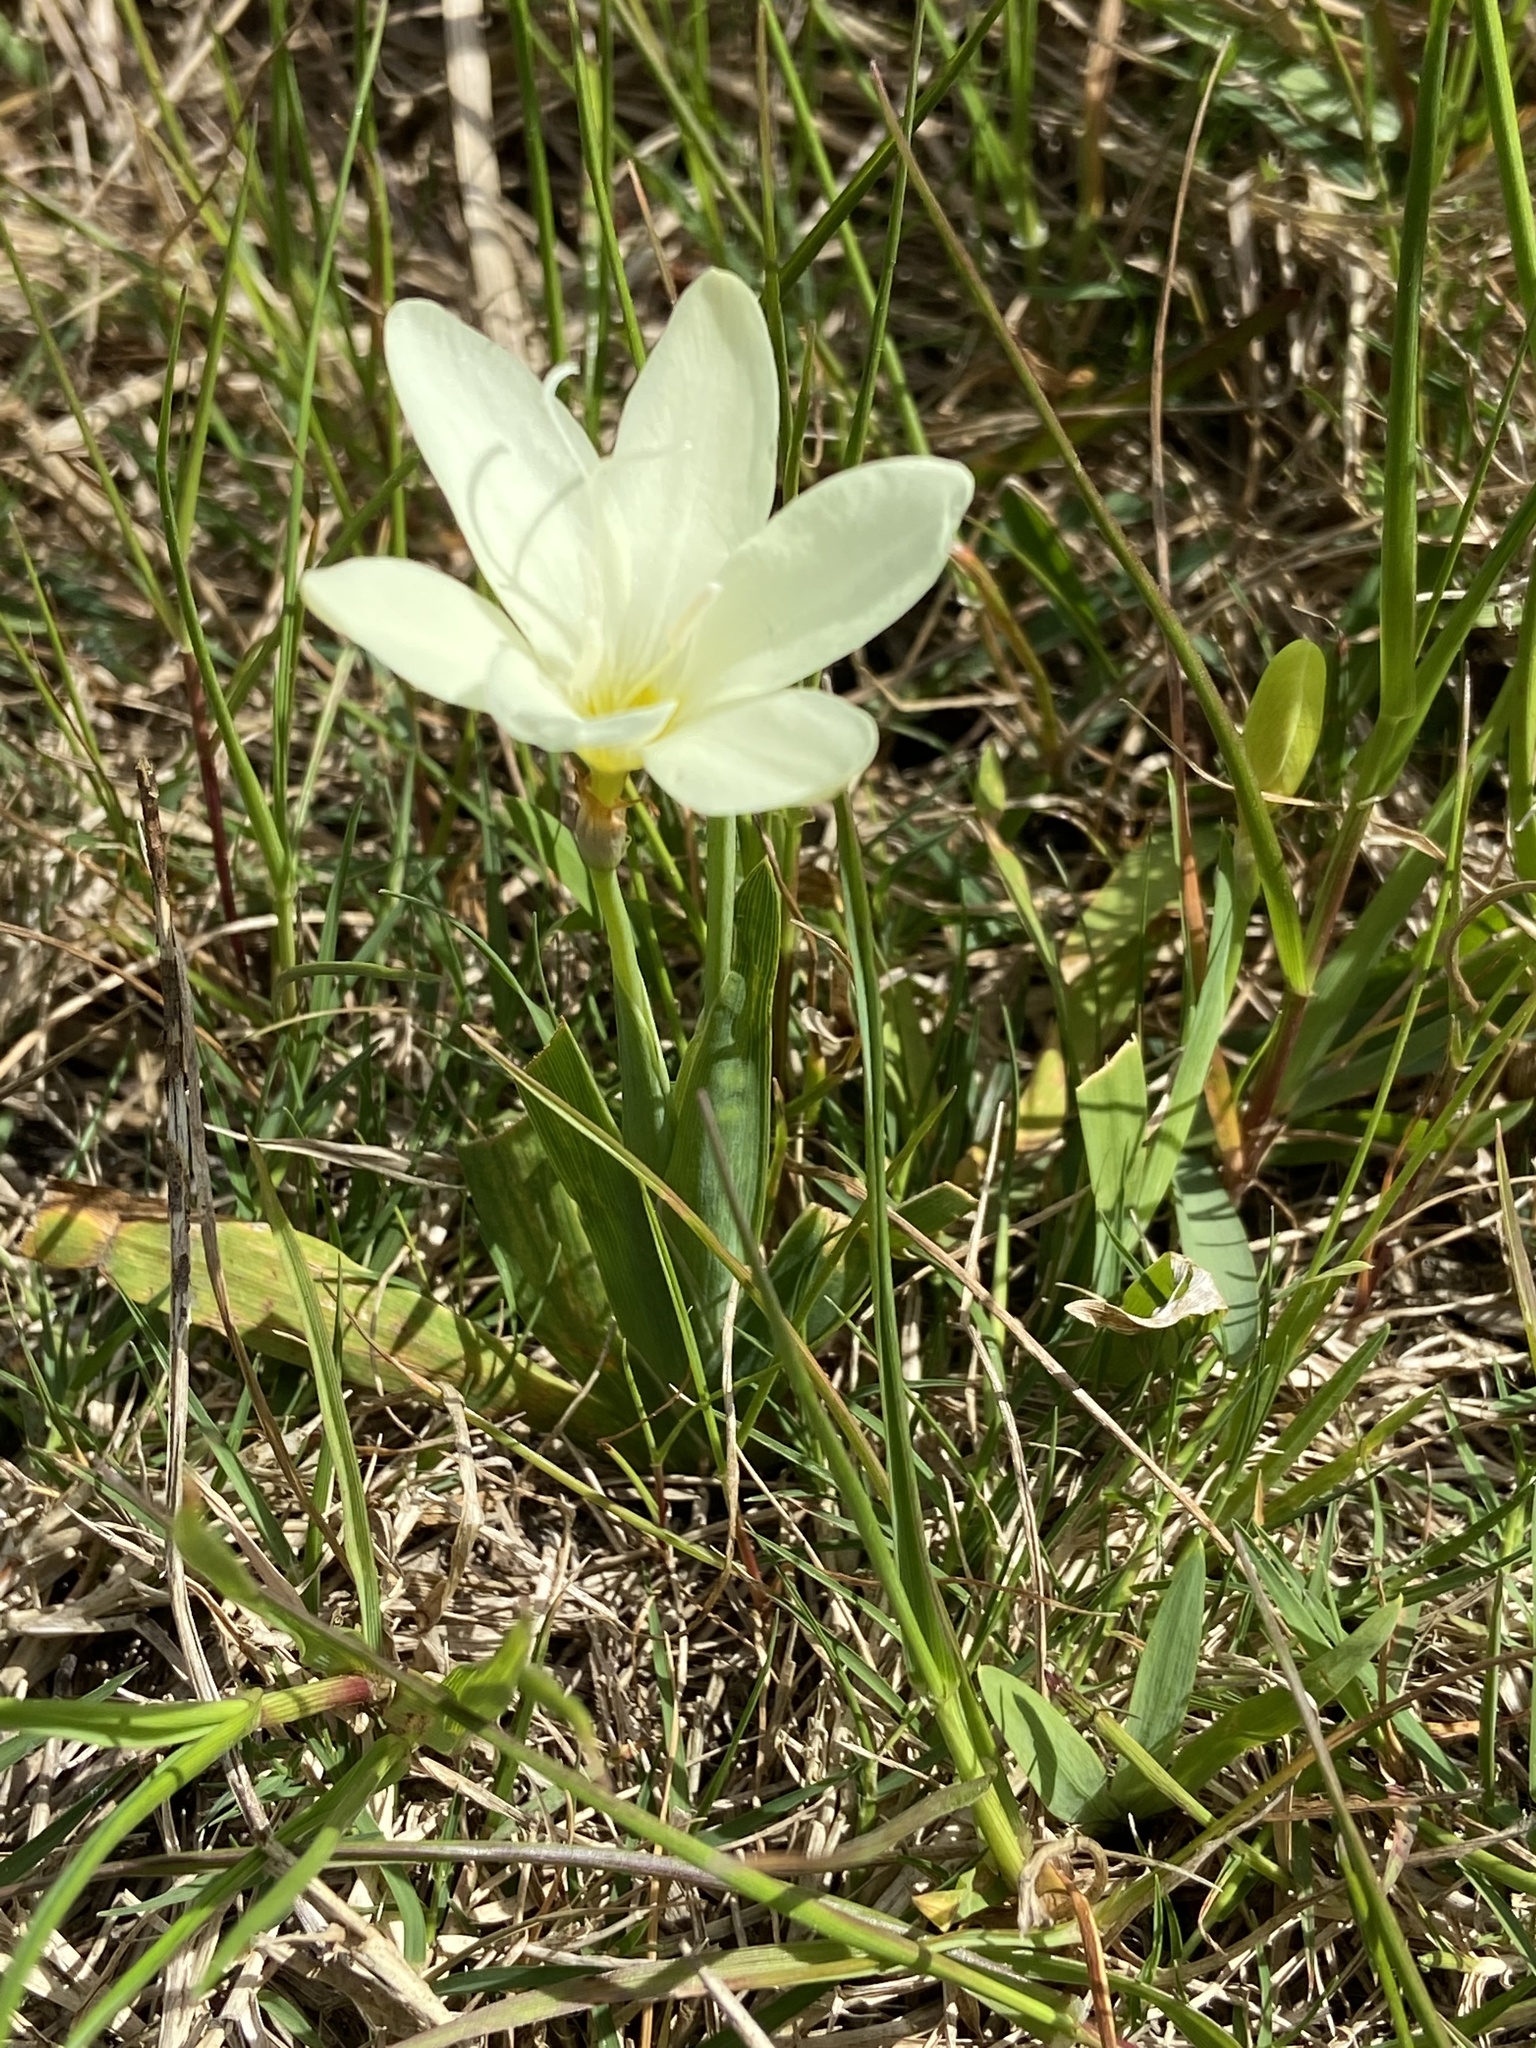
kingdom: Plantae
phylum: Tracheophyta
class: Liliopsida
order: Asparagales
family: Iridaceae
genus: Sparaxis
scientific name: Sparaxis bulbifera
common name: Harlequin-flower
